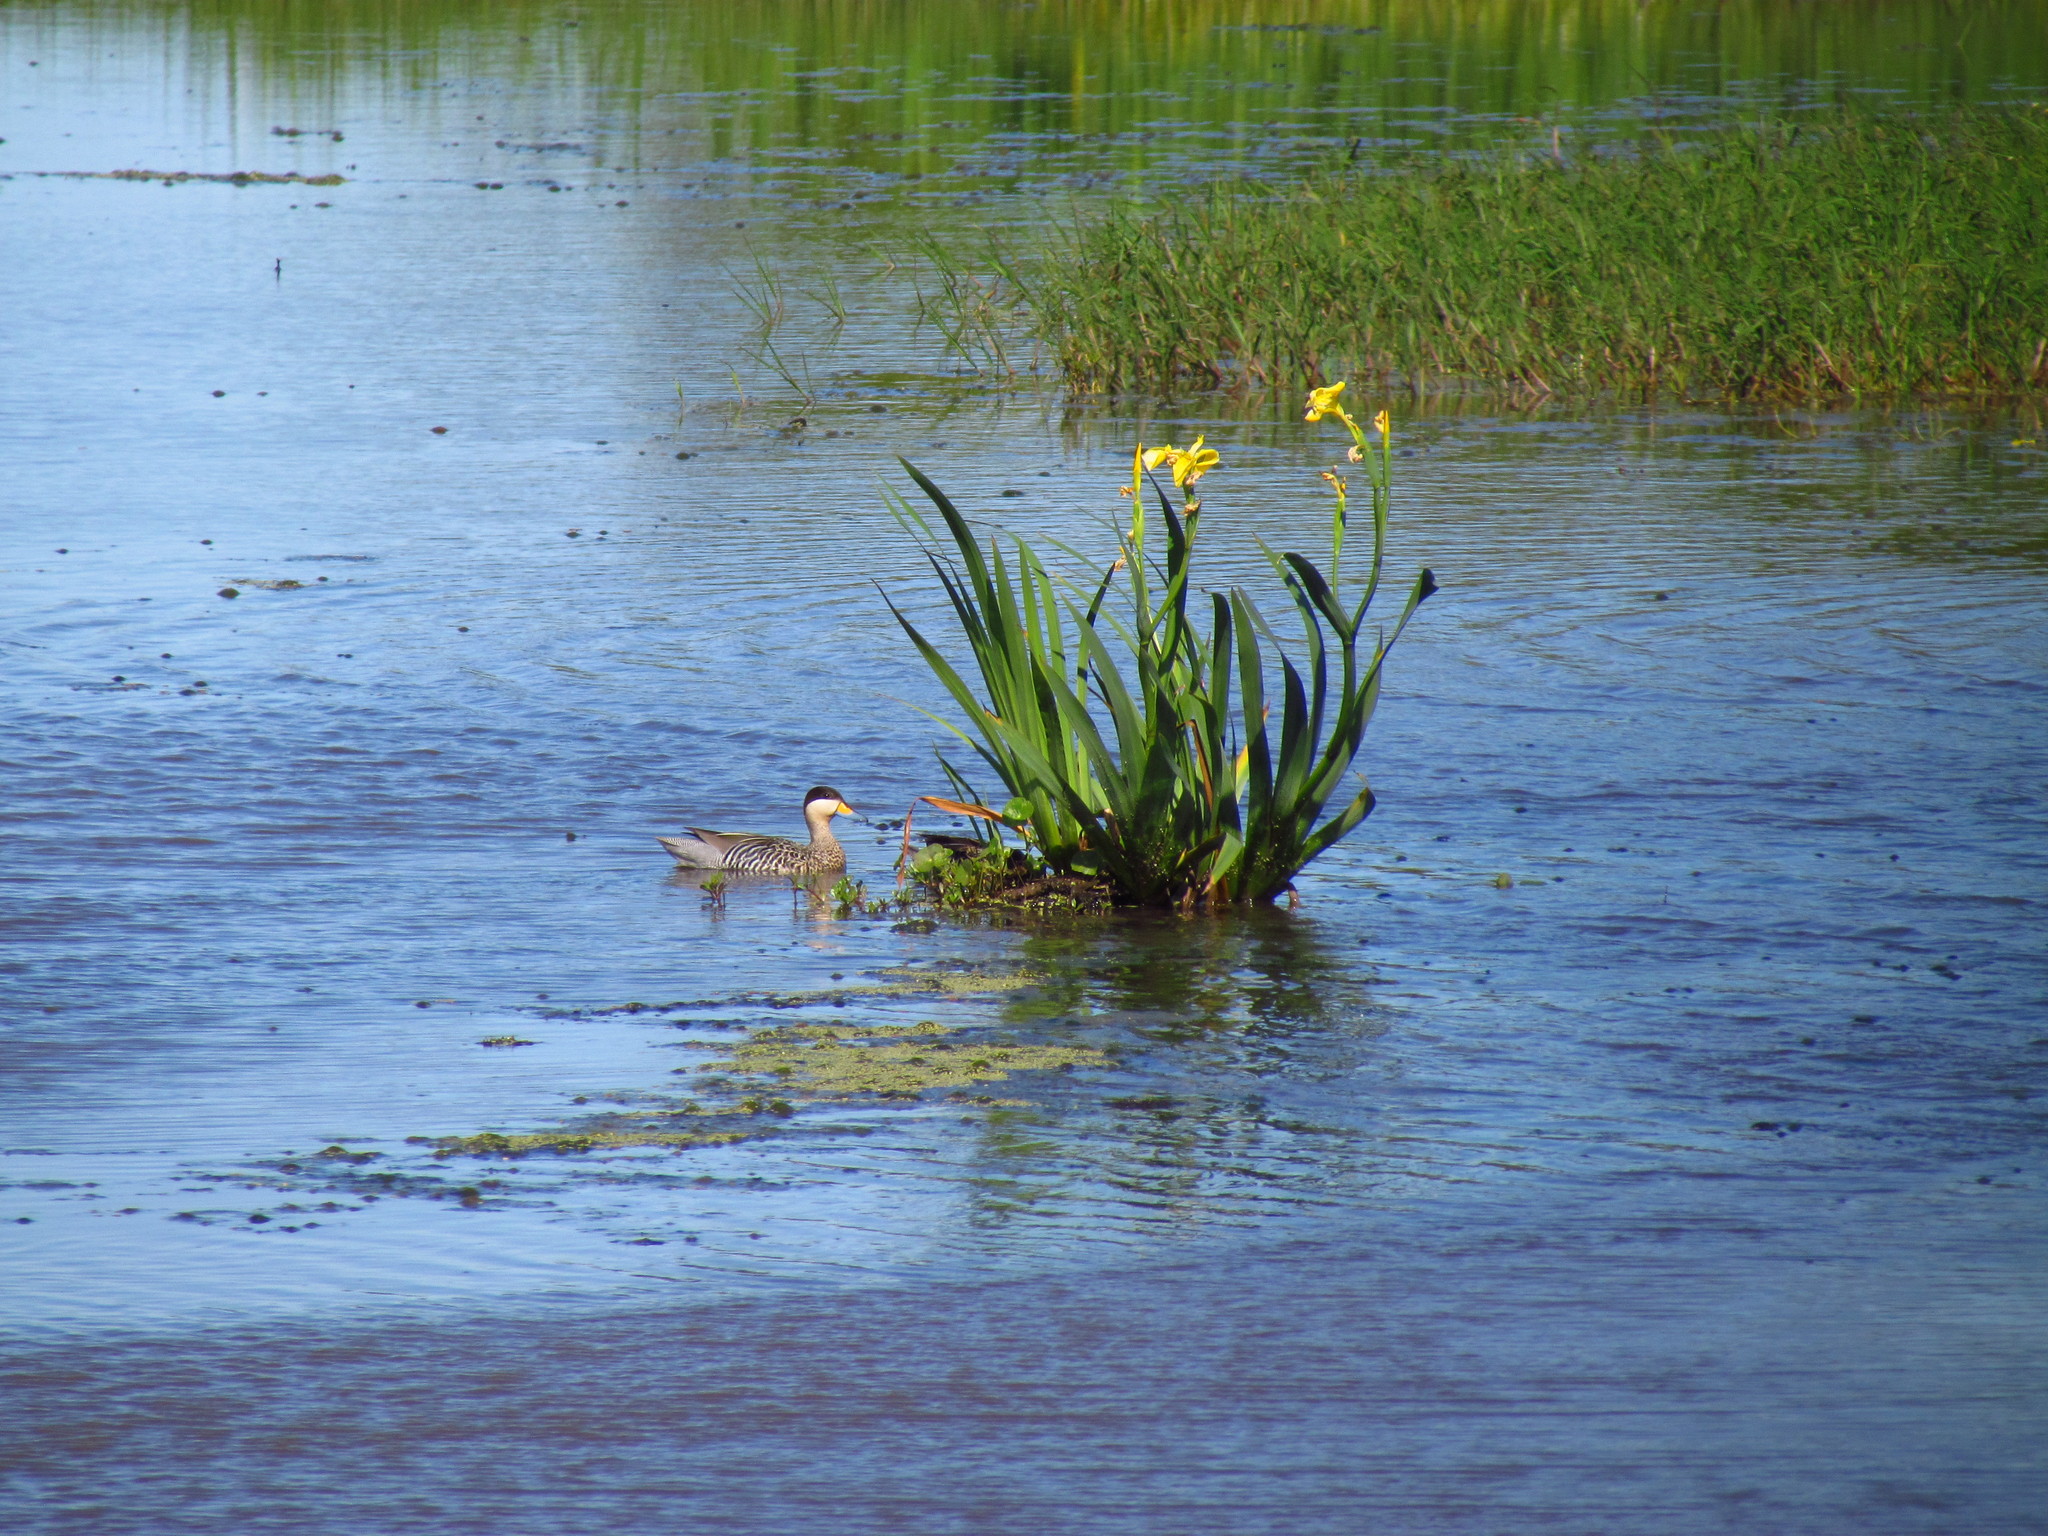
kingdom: Animalia
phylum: Chordata
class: Aves
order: Anseriformes
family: Anatidae
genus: Spatula
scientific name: Spatula versicolor
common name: Silver teal
